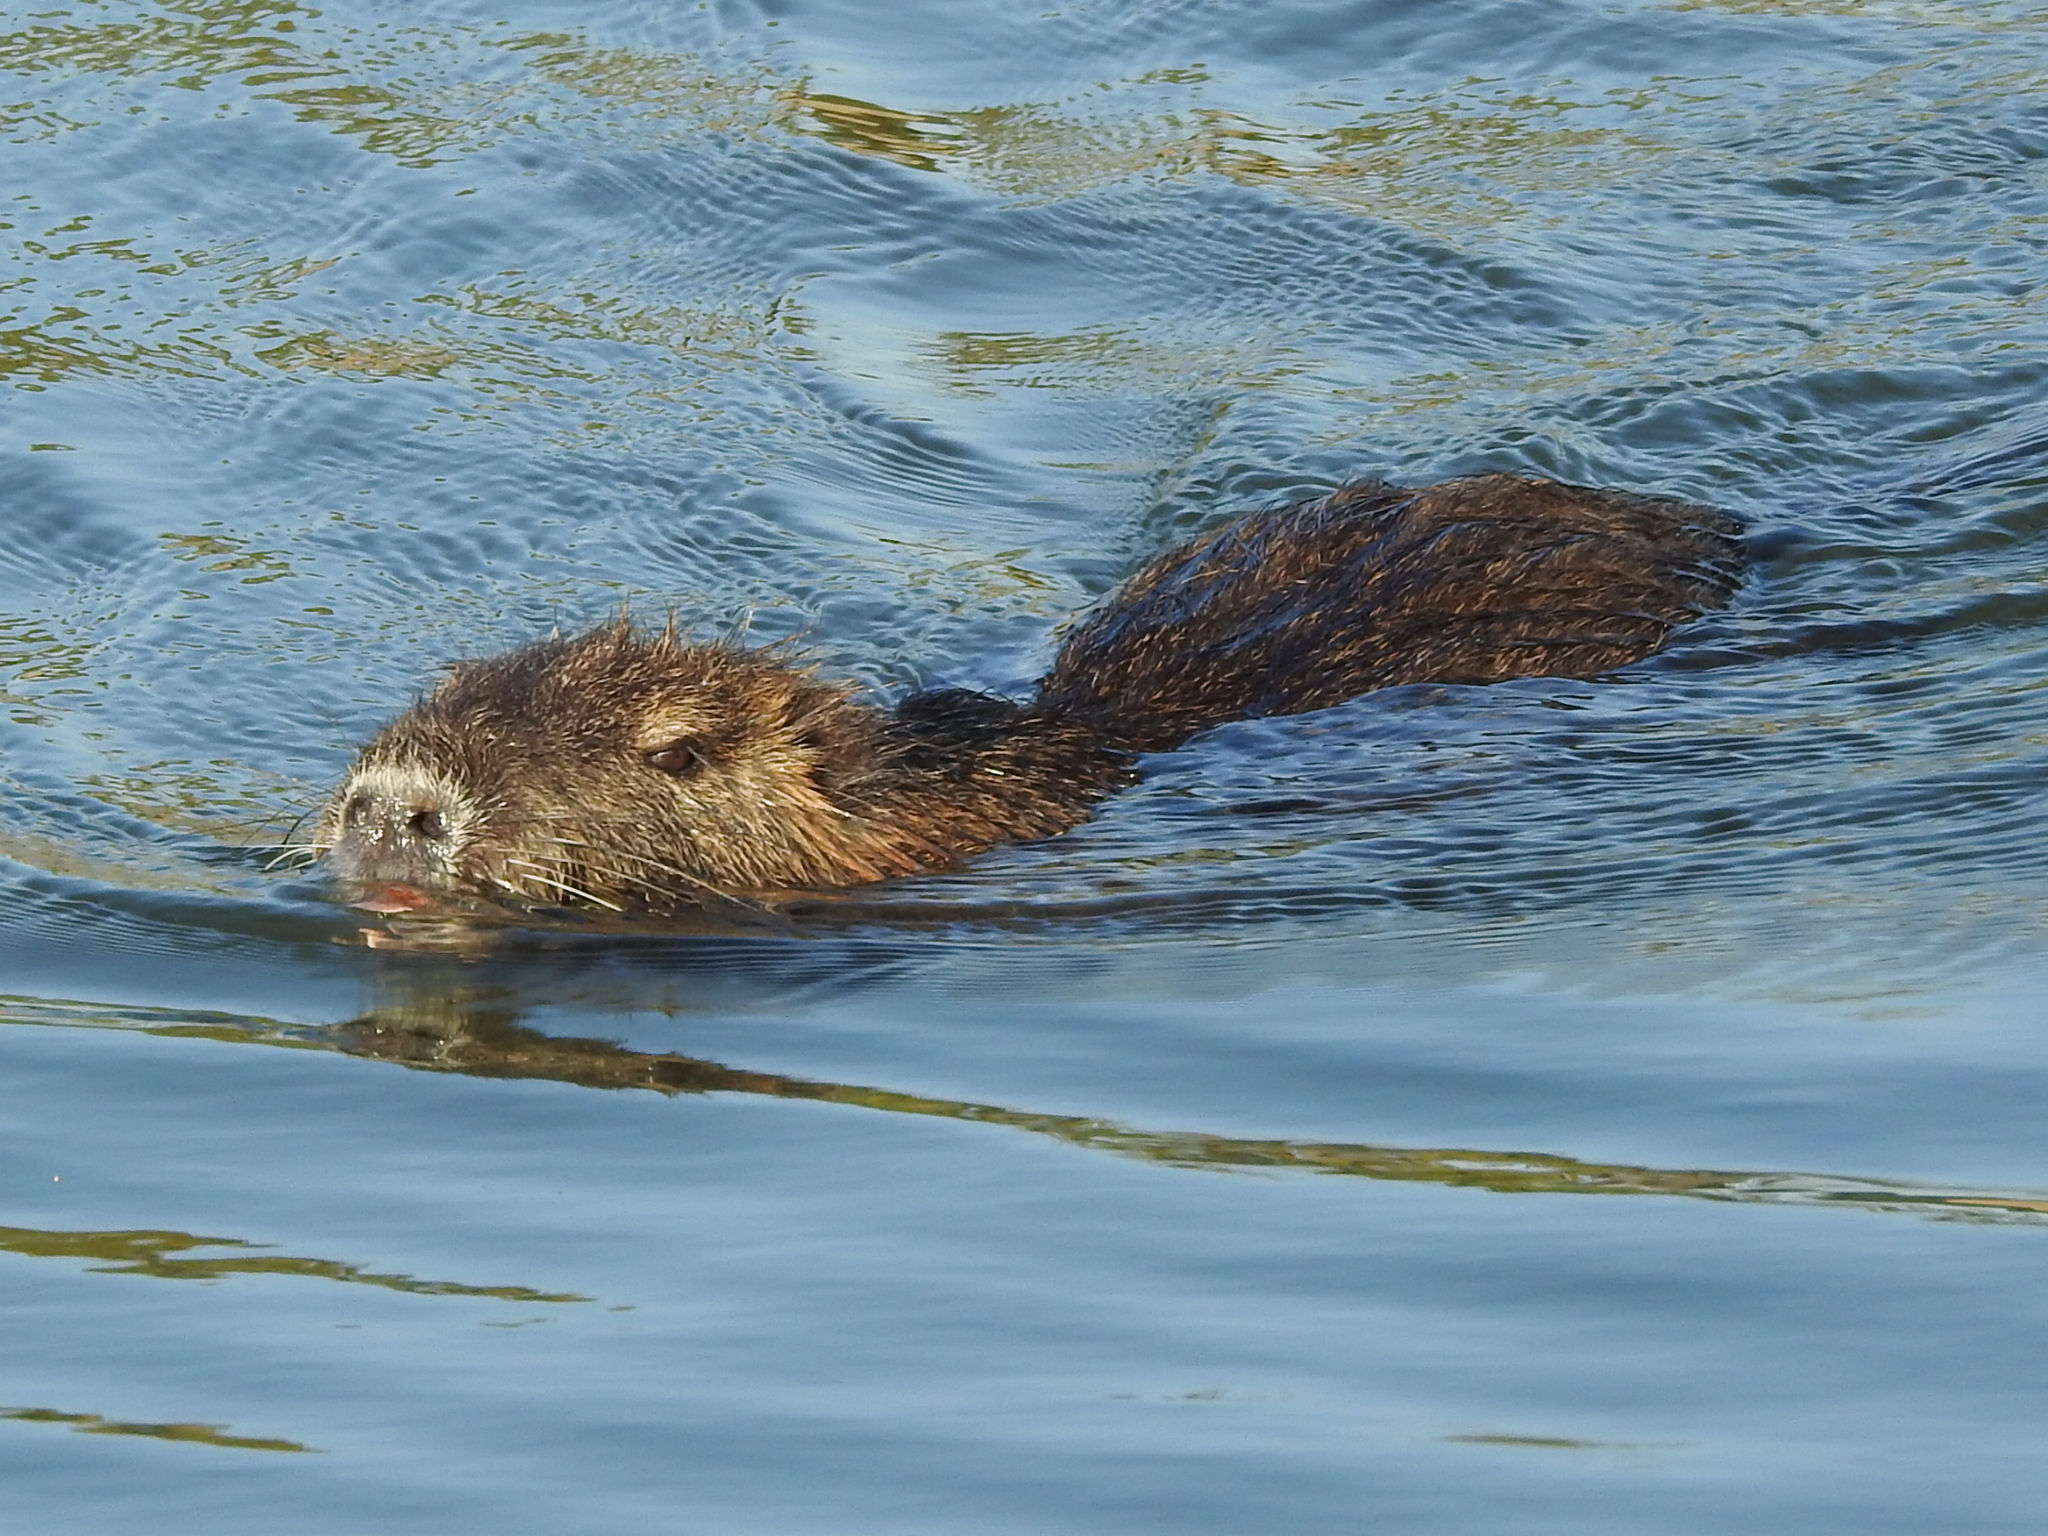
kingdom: Animalia
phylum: Chordata
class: Mammalia
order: Rodentia
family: Myocastoridae
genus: Myocastor
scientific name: Myocastor coypus
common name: Coypu
